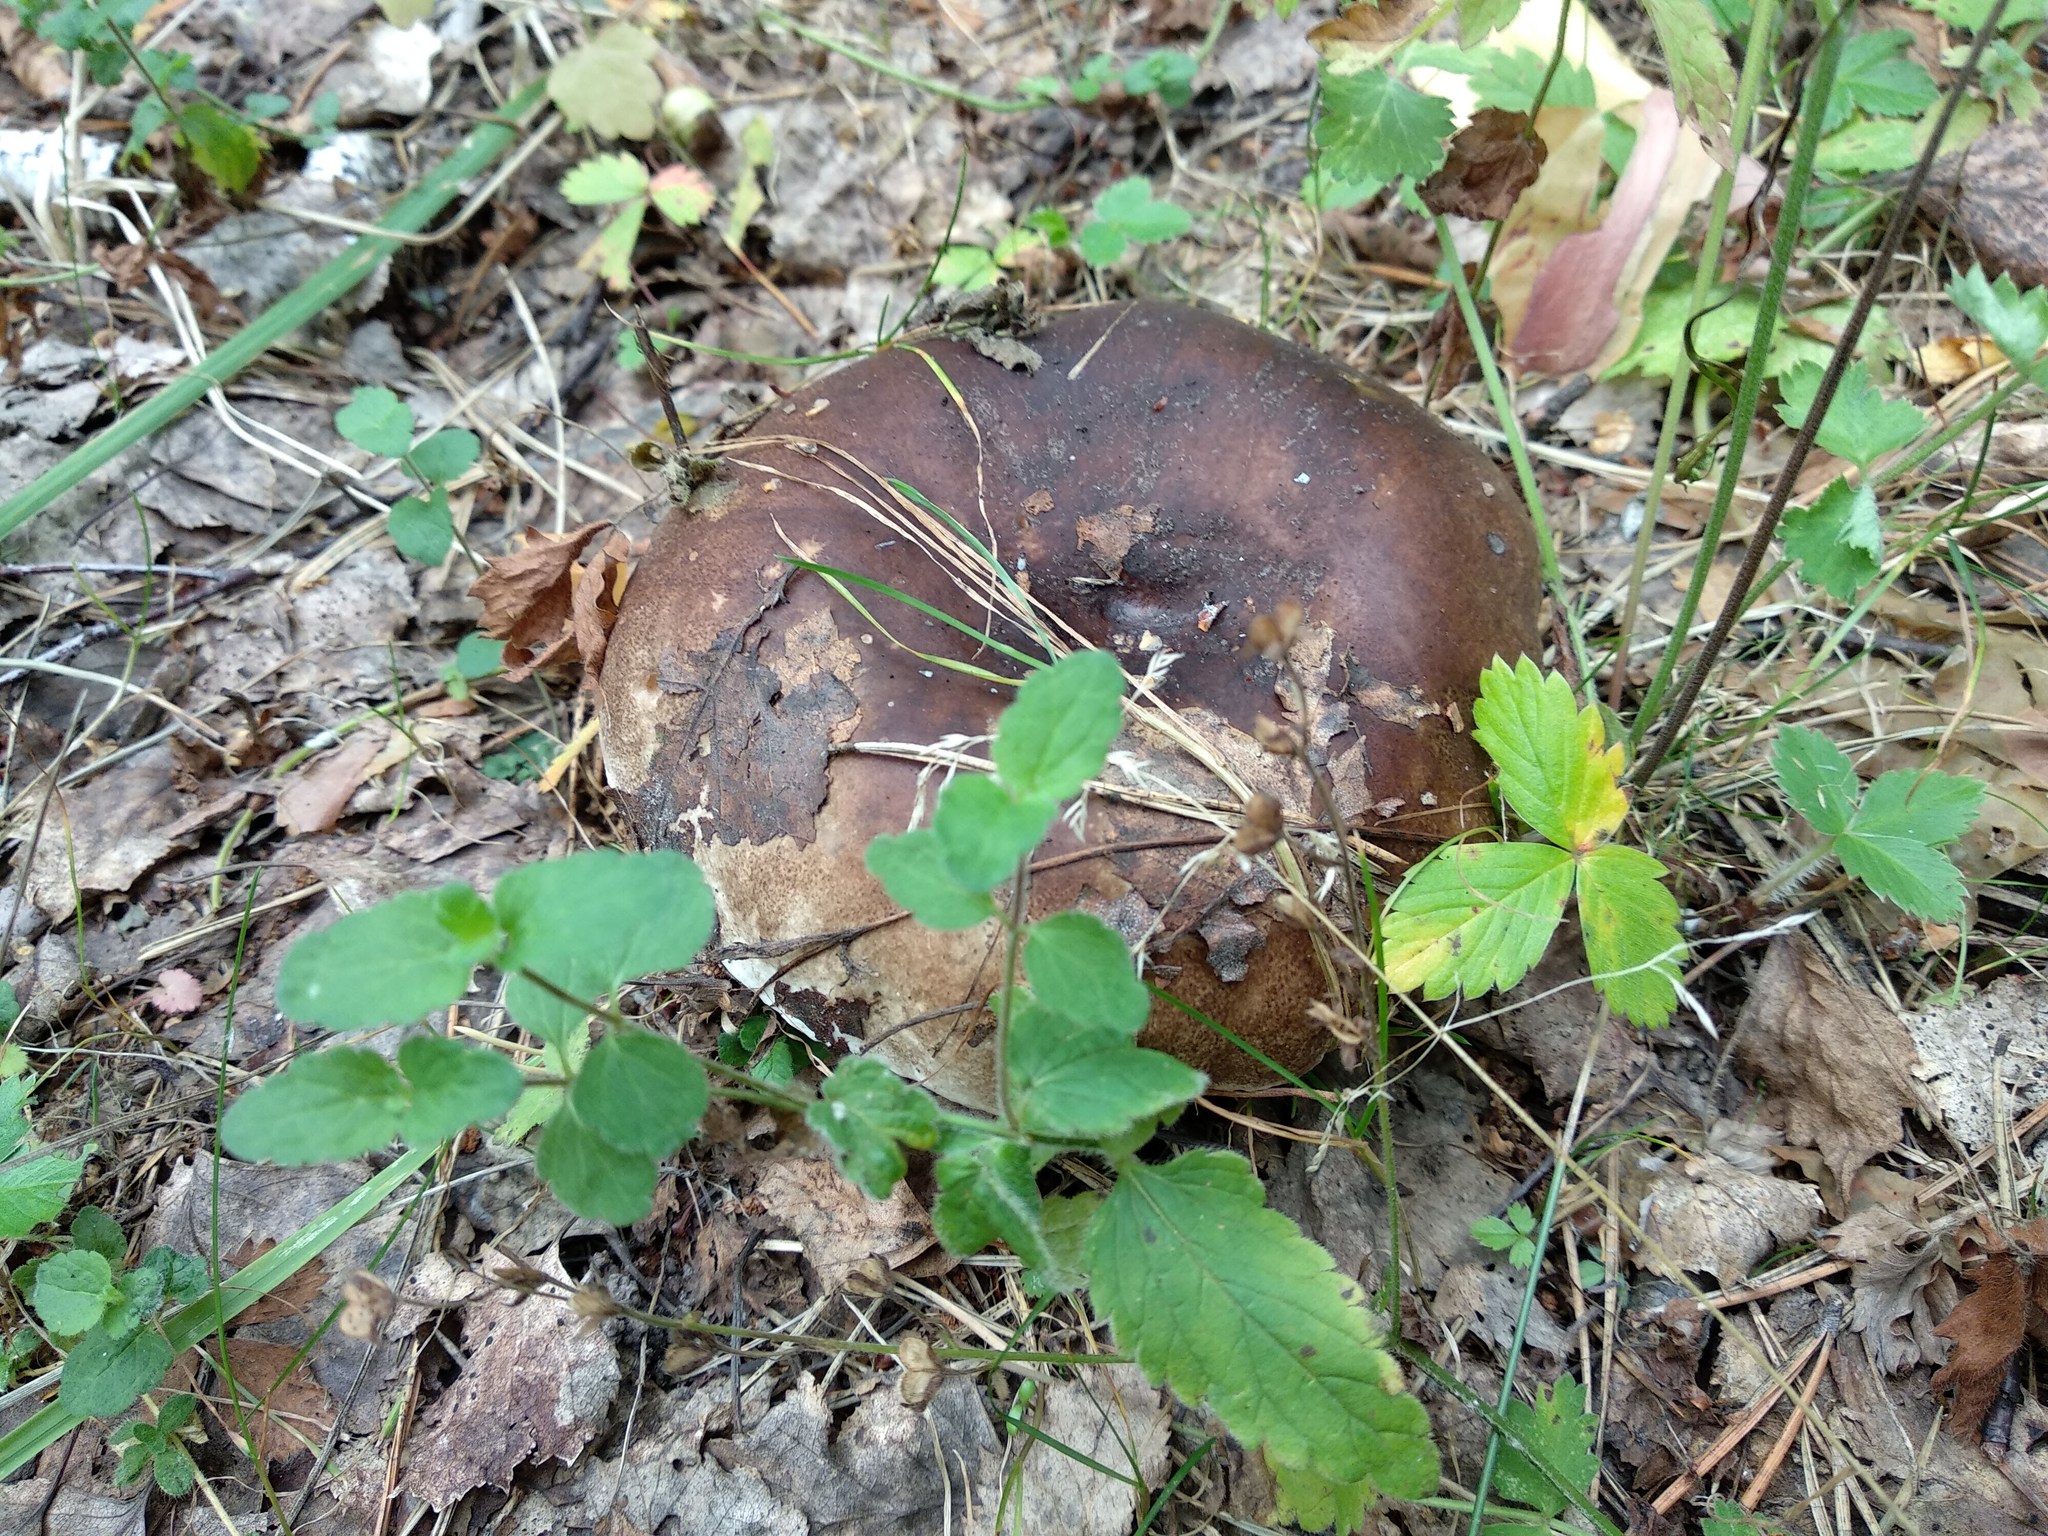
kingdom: Fungi
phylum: Basidiomycota
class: Agaricomycetes
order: Russulales
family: Russulaceae
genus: Lactarius
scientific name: Lactarius turpis
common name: Ugly milk-cap
